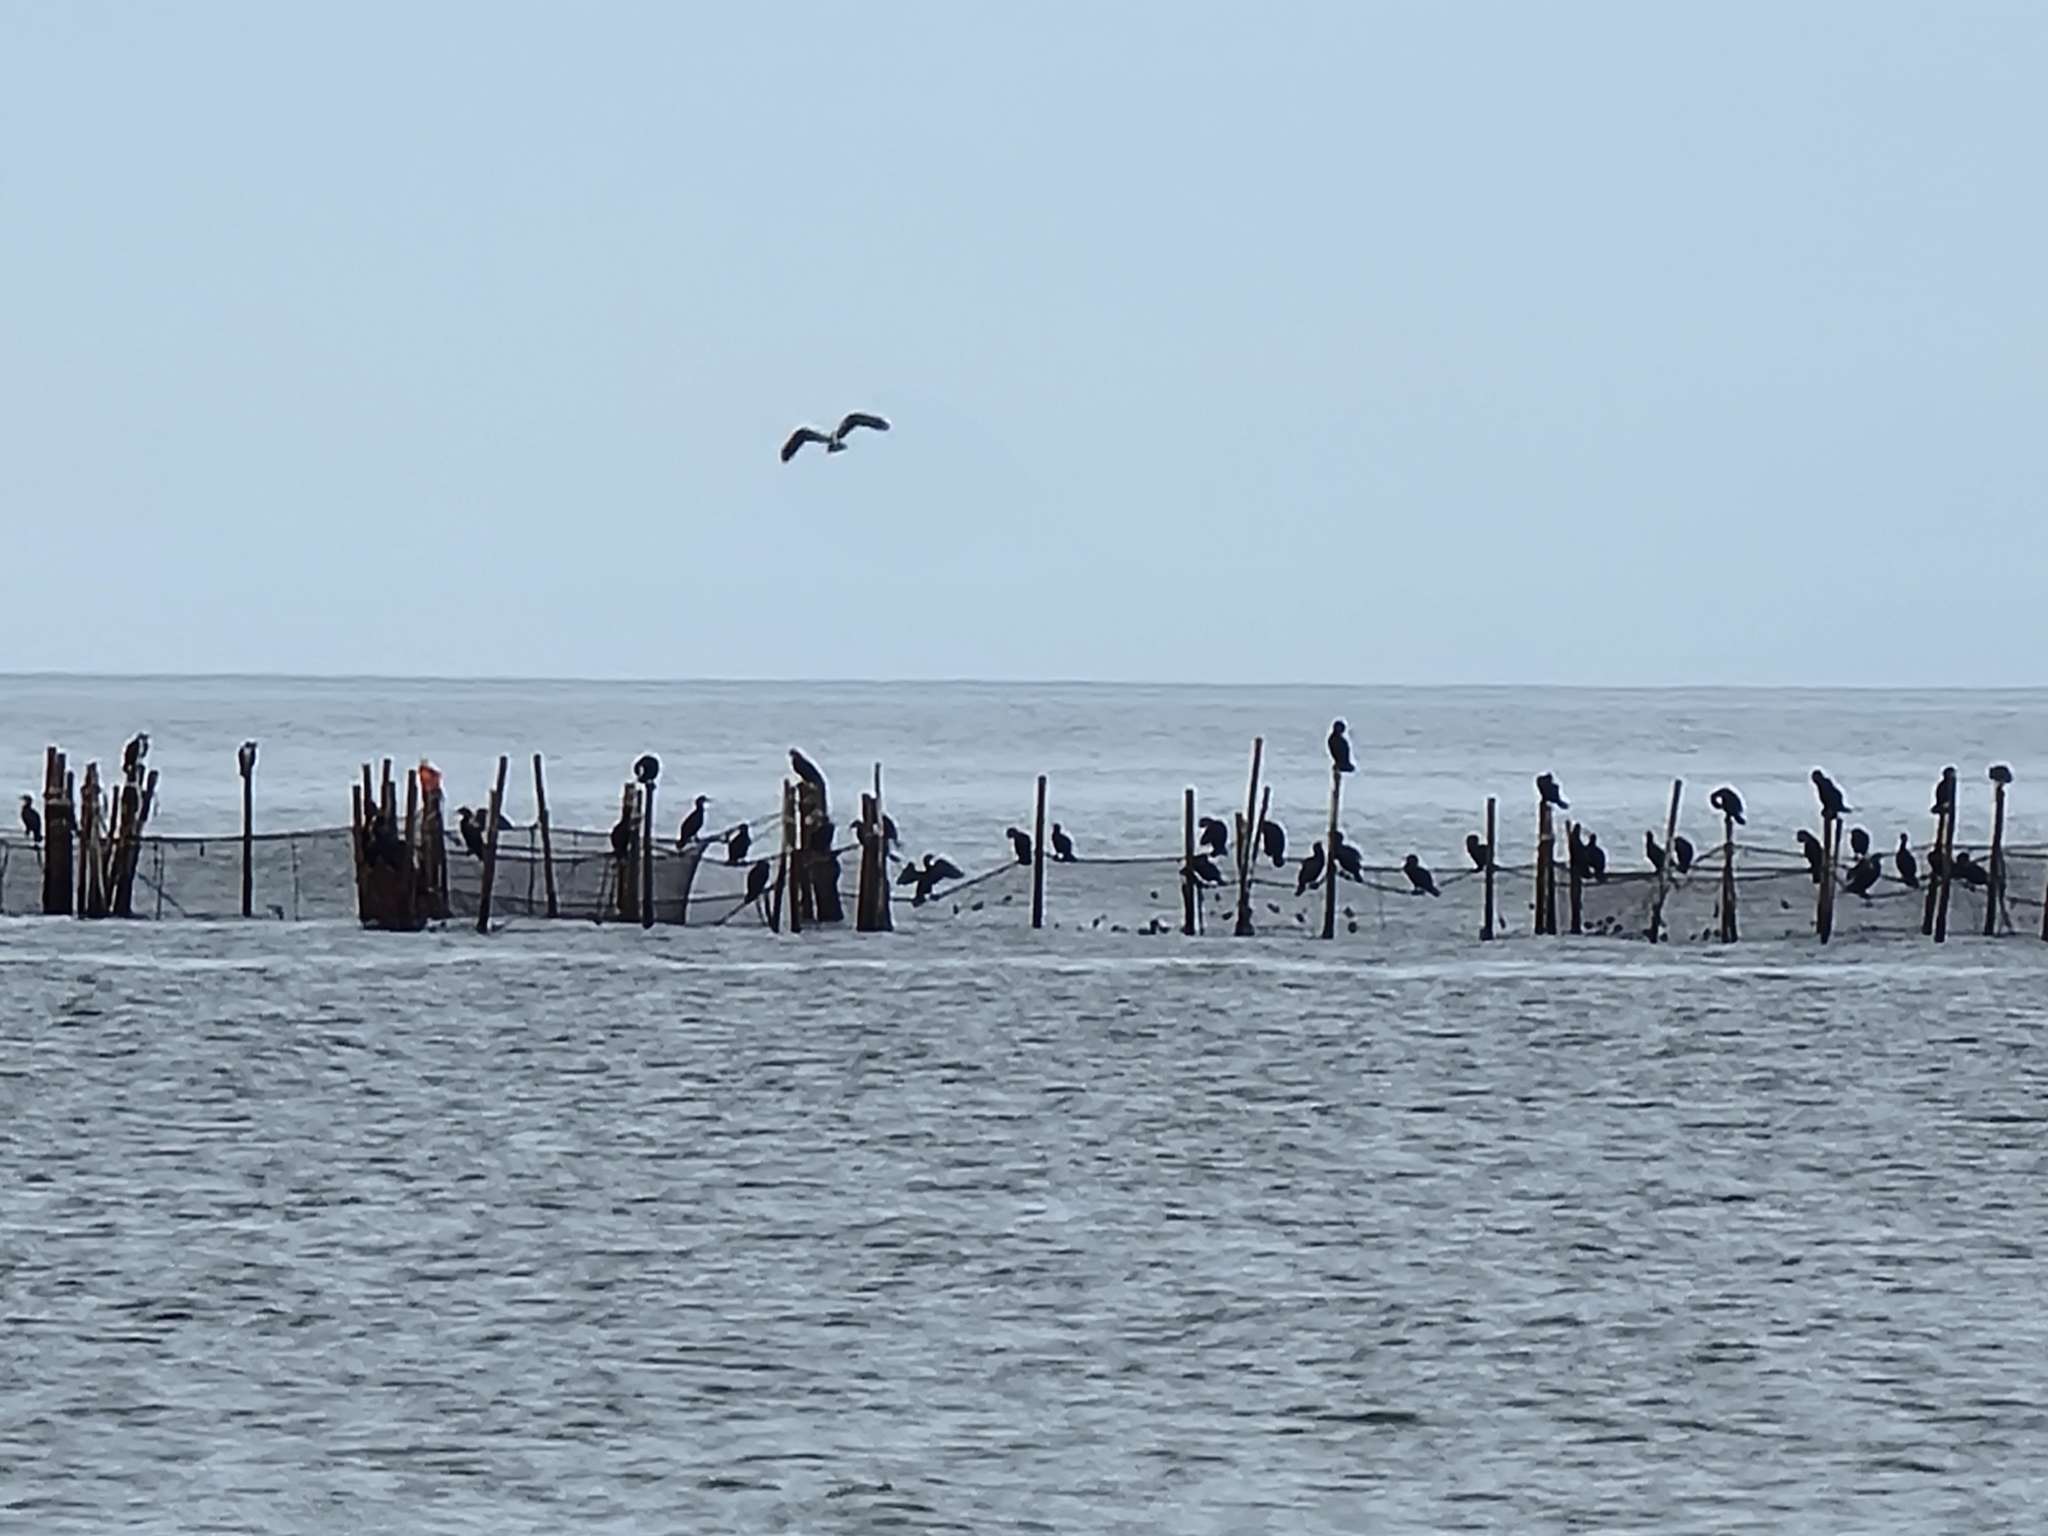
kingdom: Animalia
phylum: Chordata
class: Aves
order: Suliformes
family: Phalacrocoracidae
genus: Phalacrocorax
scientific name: Phalacrocorax auritus
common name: Double-crested cormorant
